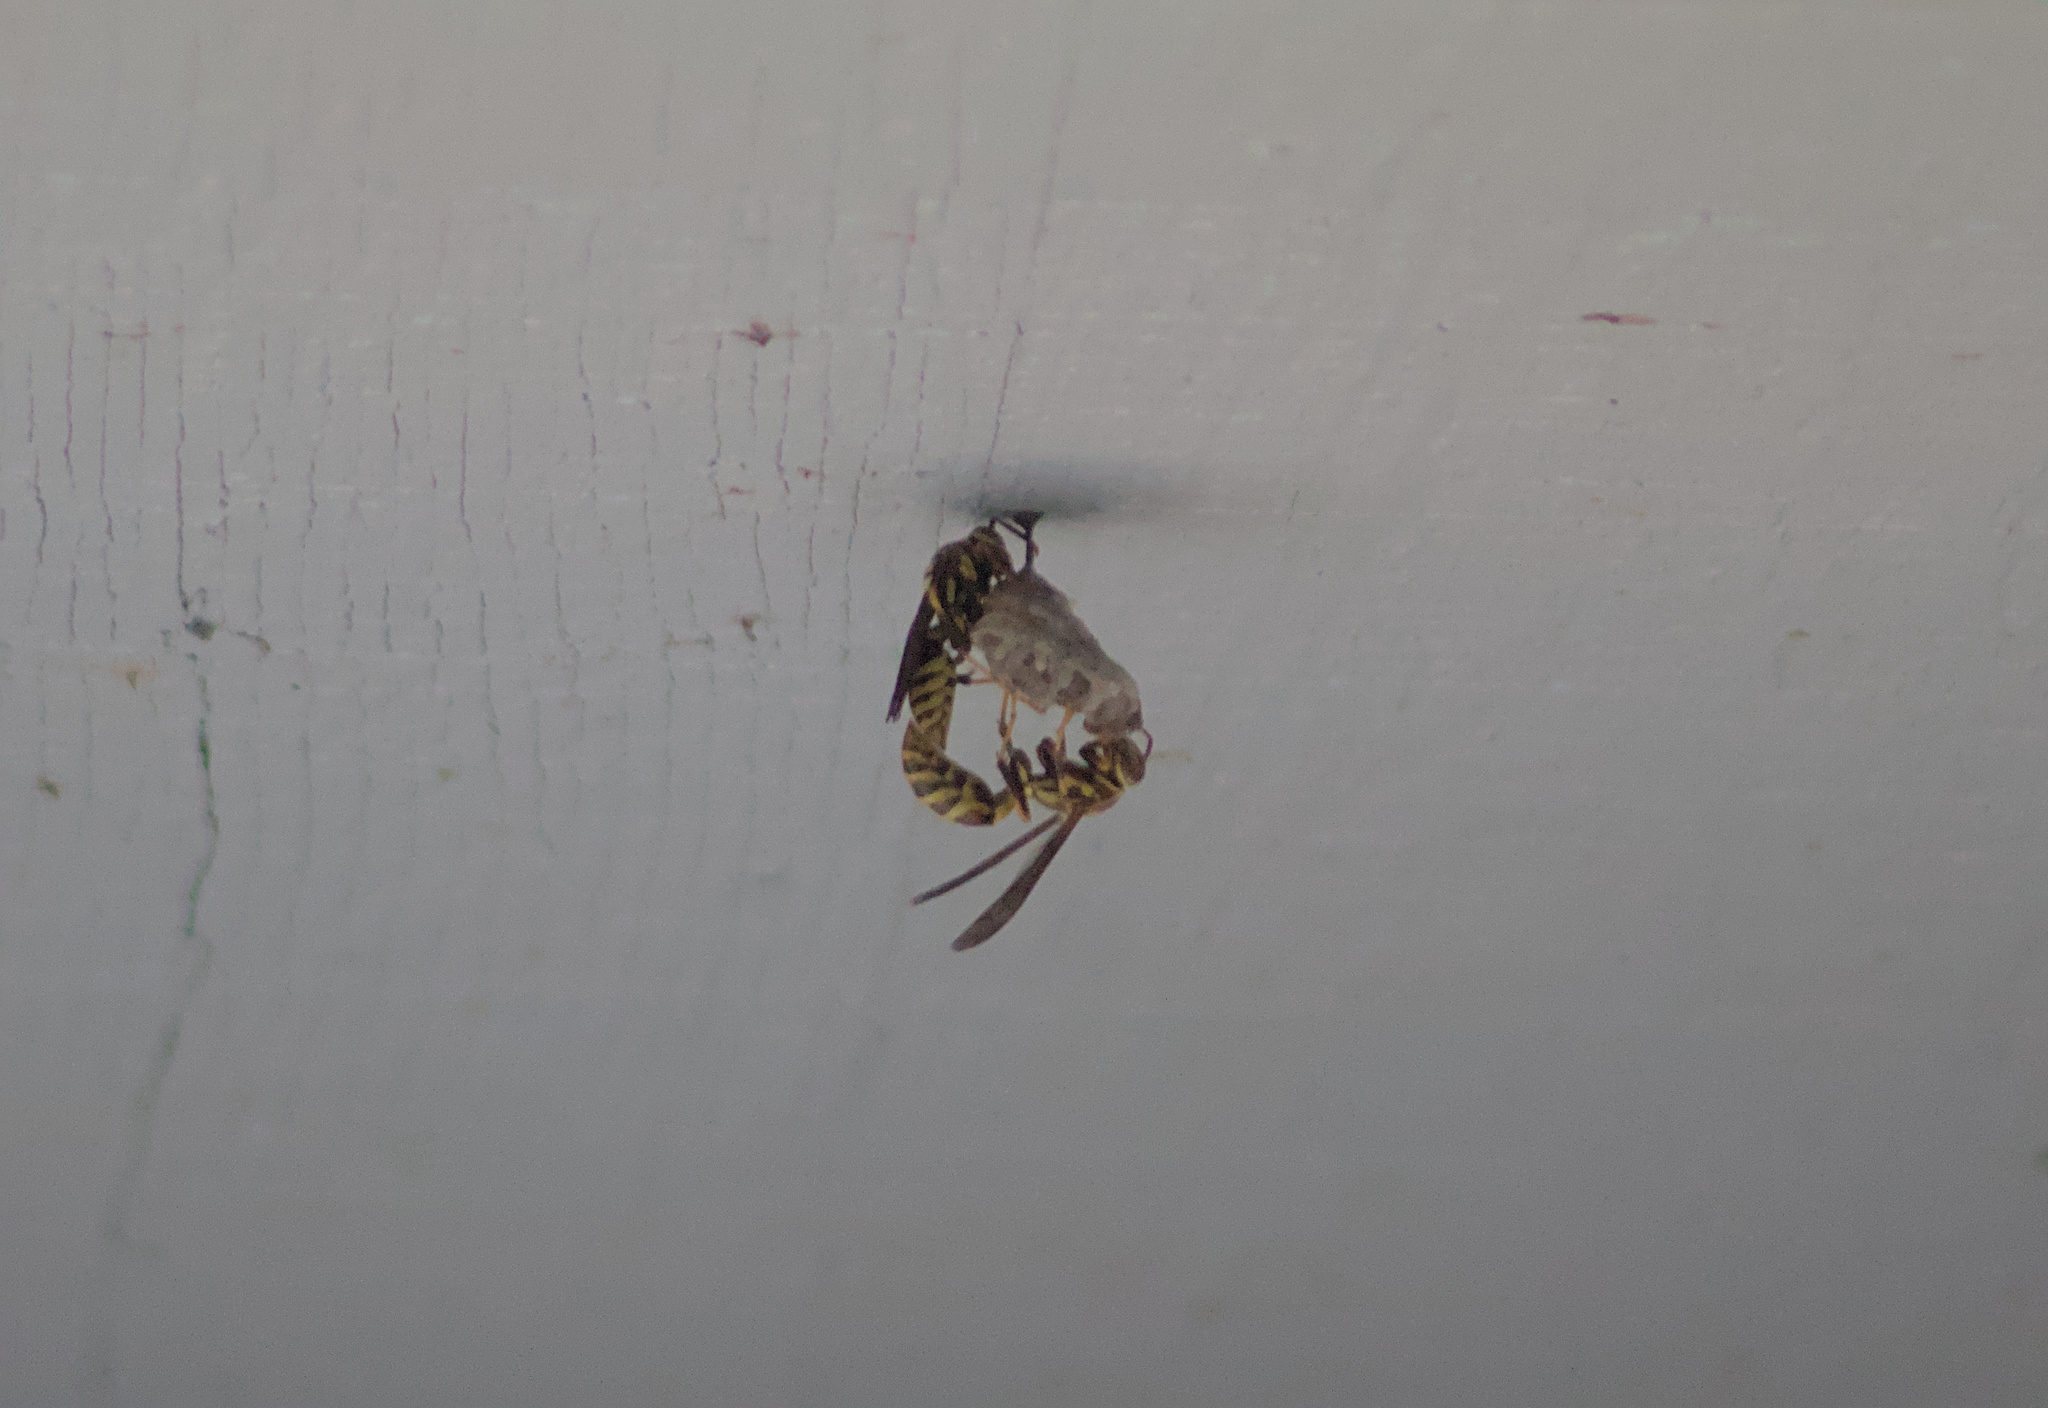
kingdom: Animalia
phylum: Arthropoda
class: Insecta
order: Hymenoptera
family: Eumenidae
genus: Polistes
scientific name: Polistes exclamans
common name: Paper wasp
